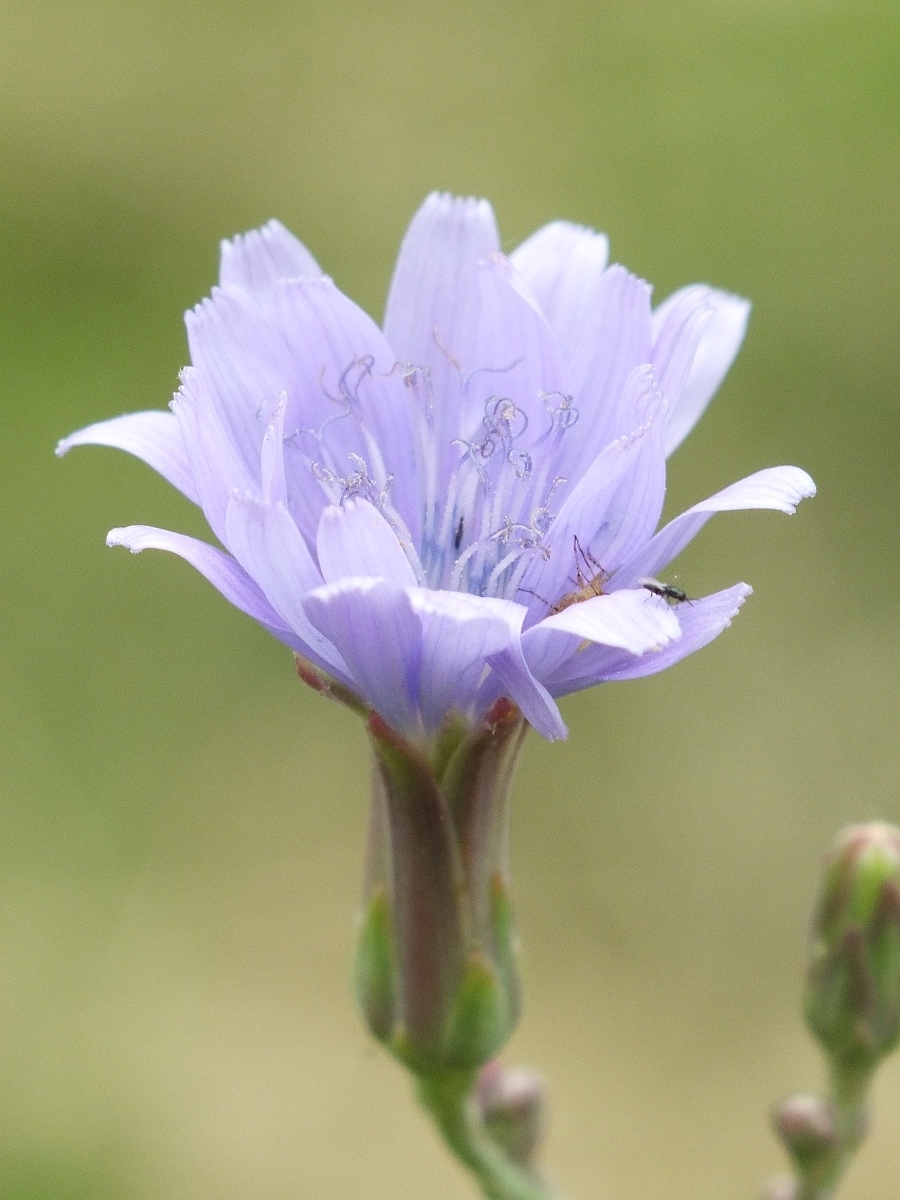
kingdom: Plantae
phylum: Tracheophyta
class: Magnoliopsida
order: Asterales
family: Asteraceae
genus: Lactuca
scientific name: Lactuca tatarica
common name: Blue lettuce
